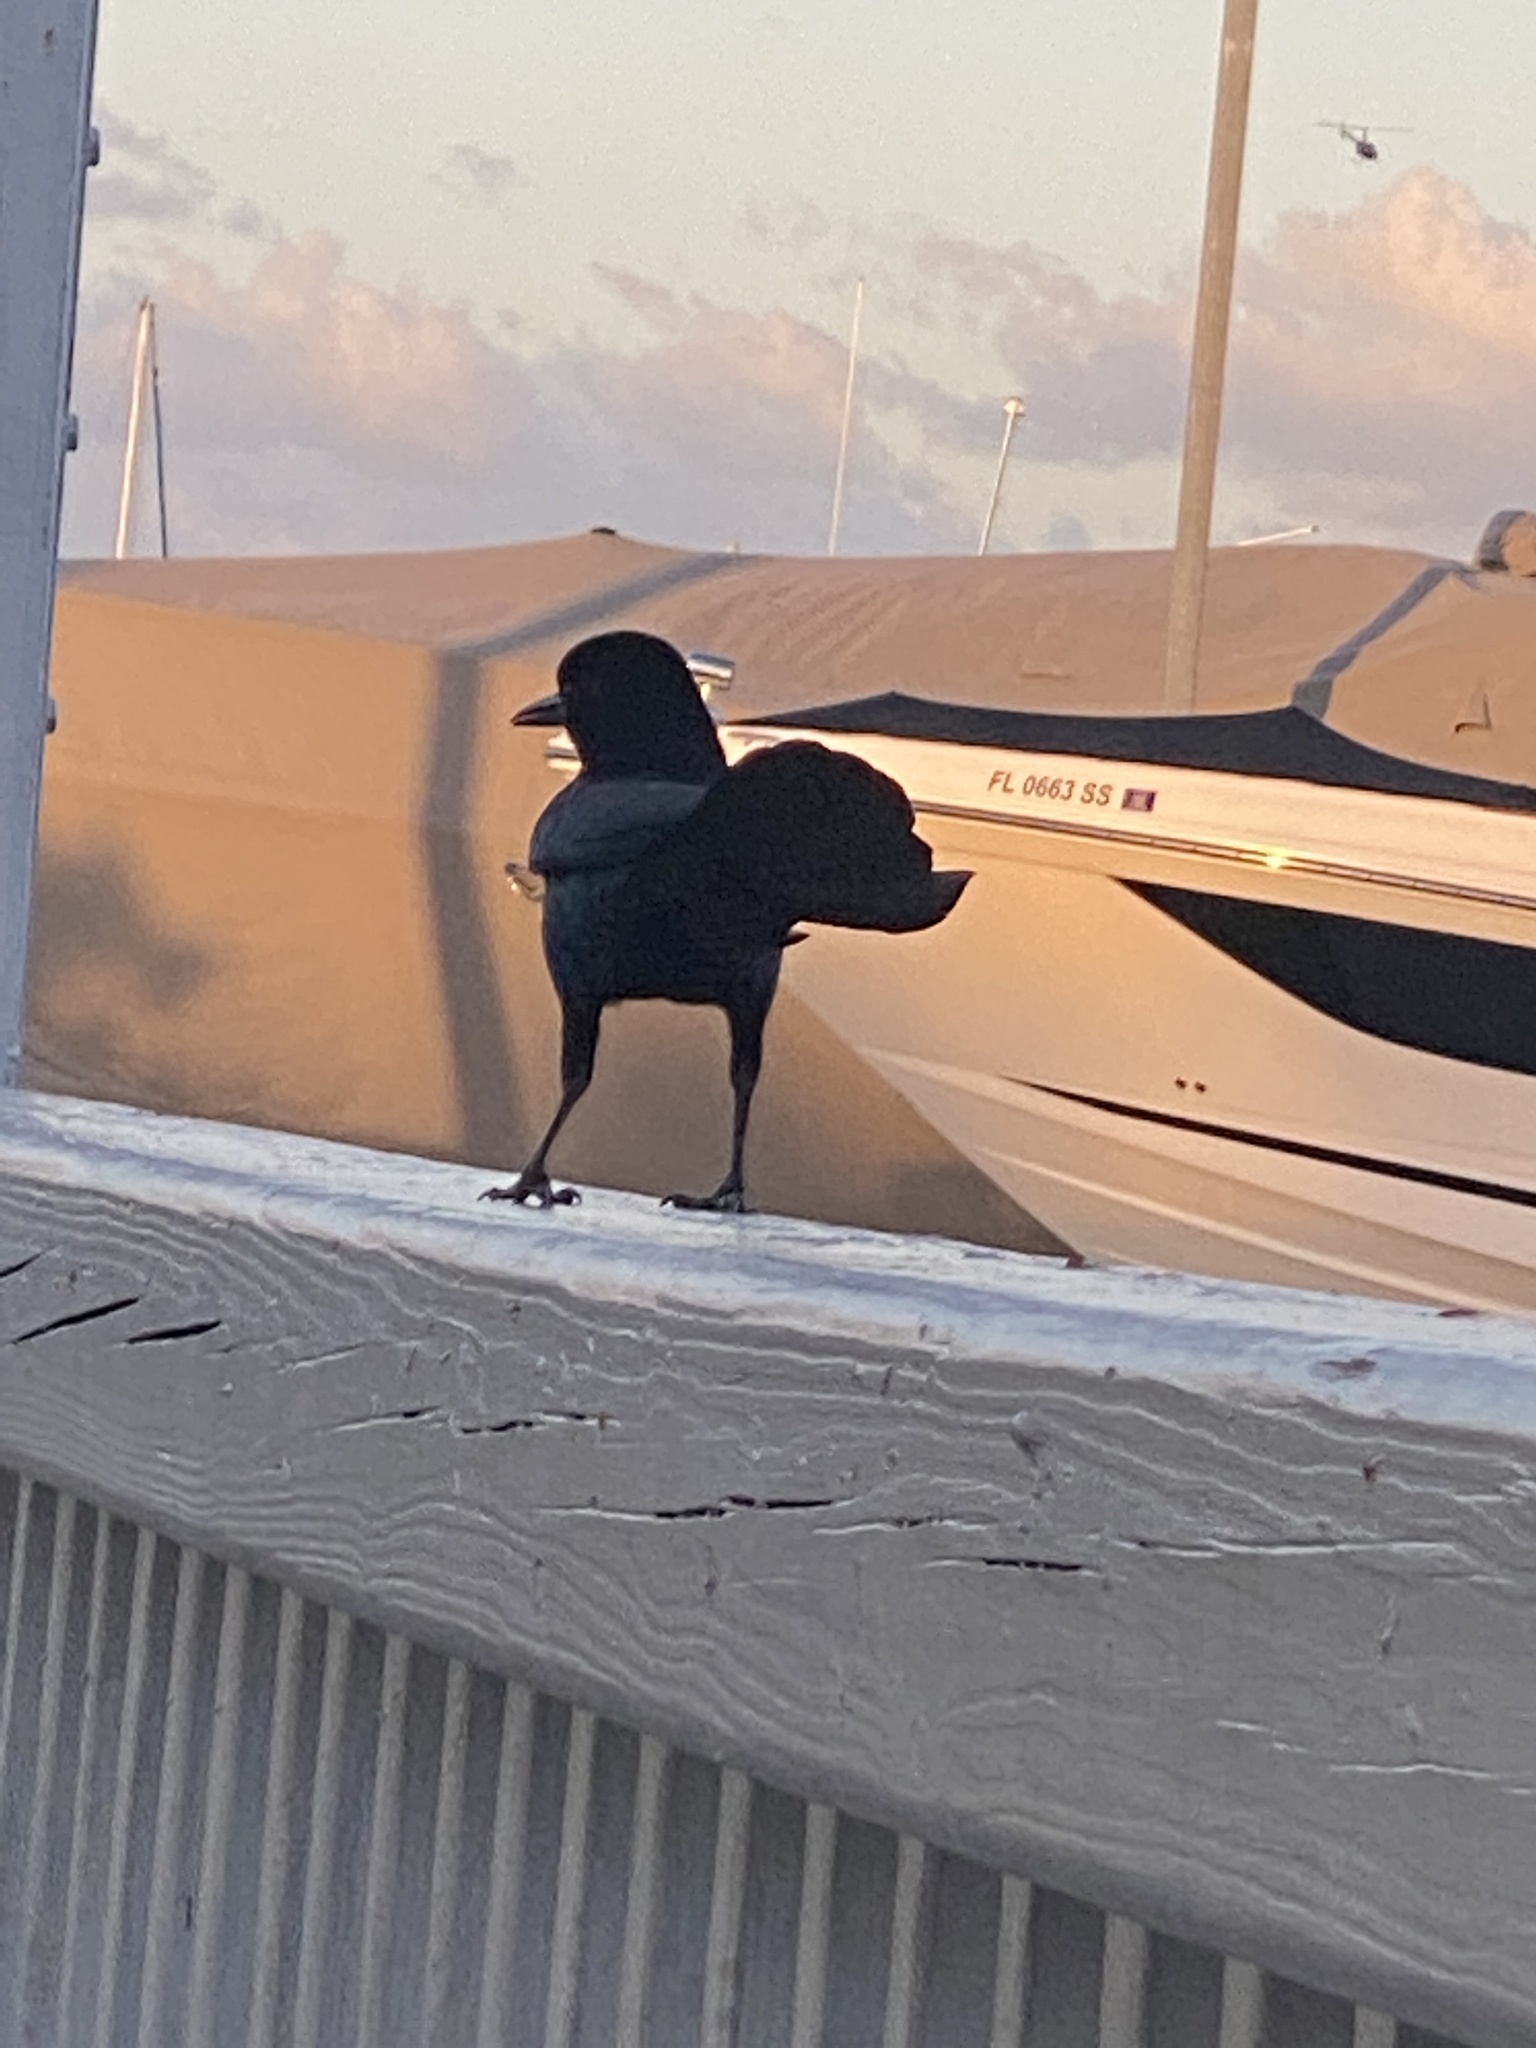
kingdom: Animalia
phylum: Chordata
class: Aves
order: Passeriformes
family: Icteridae
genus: Quiscalus
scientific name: Quiscalus major
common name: Boat-tailed grackle
